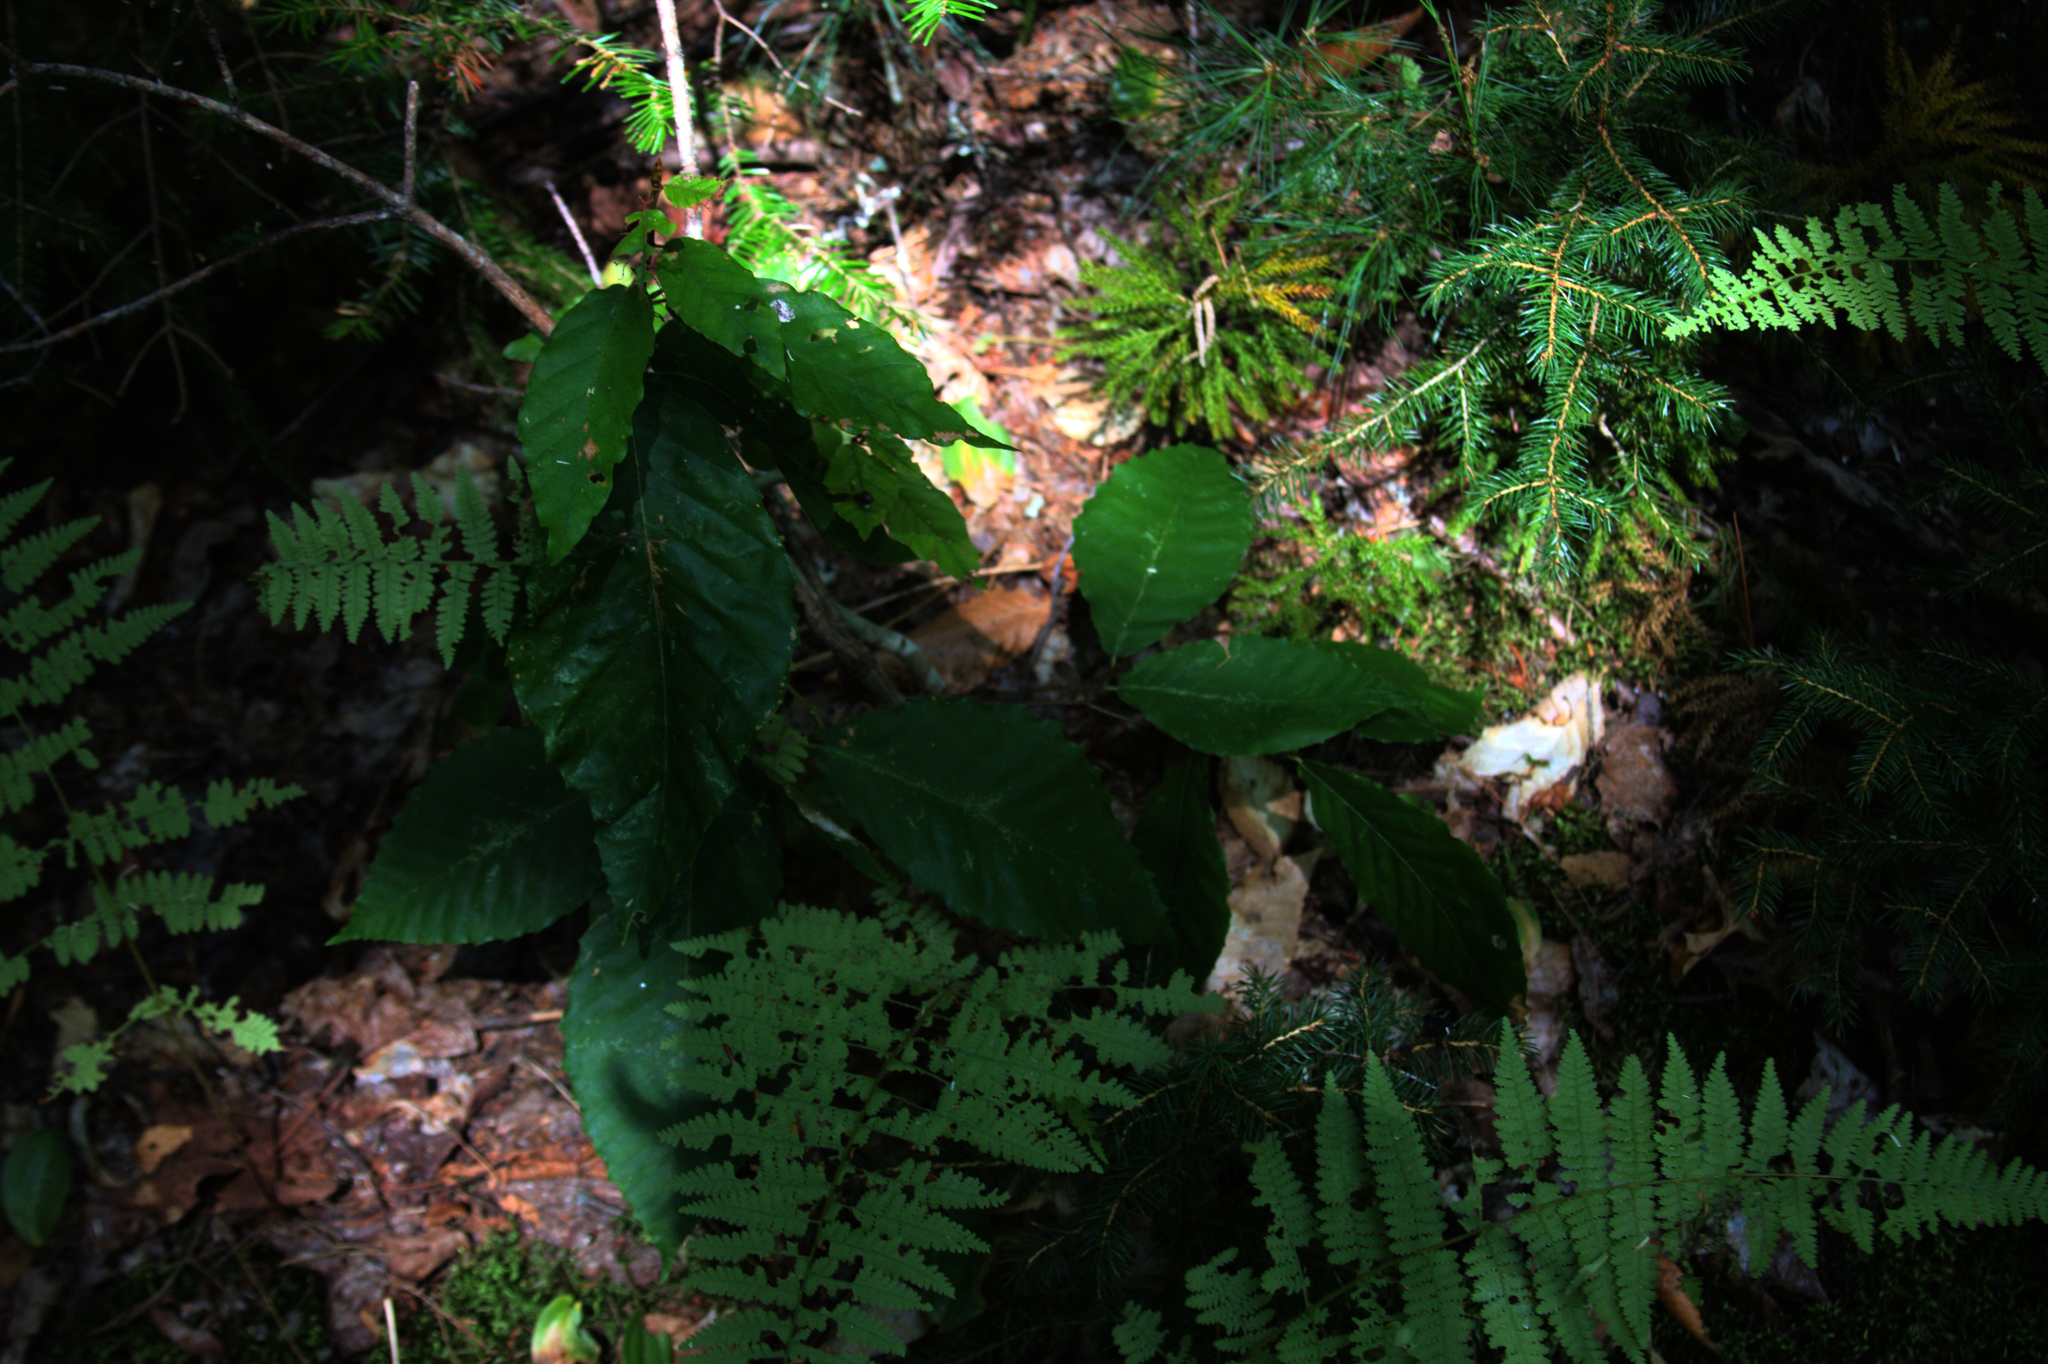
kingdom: Plantae
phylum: Tracheophyta
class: Magnoliopsida
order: Fagales
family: Fagaceae
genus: Fagus
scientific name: Fagus grandifolia
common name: American beech
